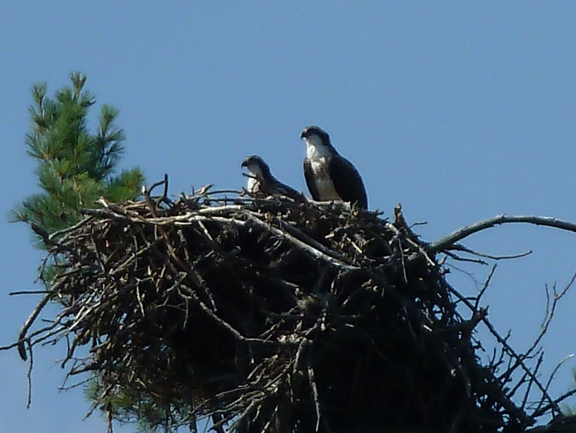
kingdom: Animalia
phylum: Chordata
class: Aves
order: Accipitriformes
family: Pandionidae
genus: Pandion
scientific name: Pandion haliaetus
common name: Osprey
